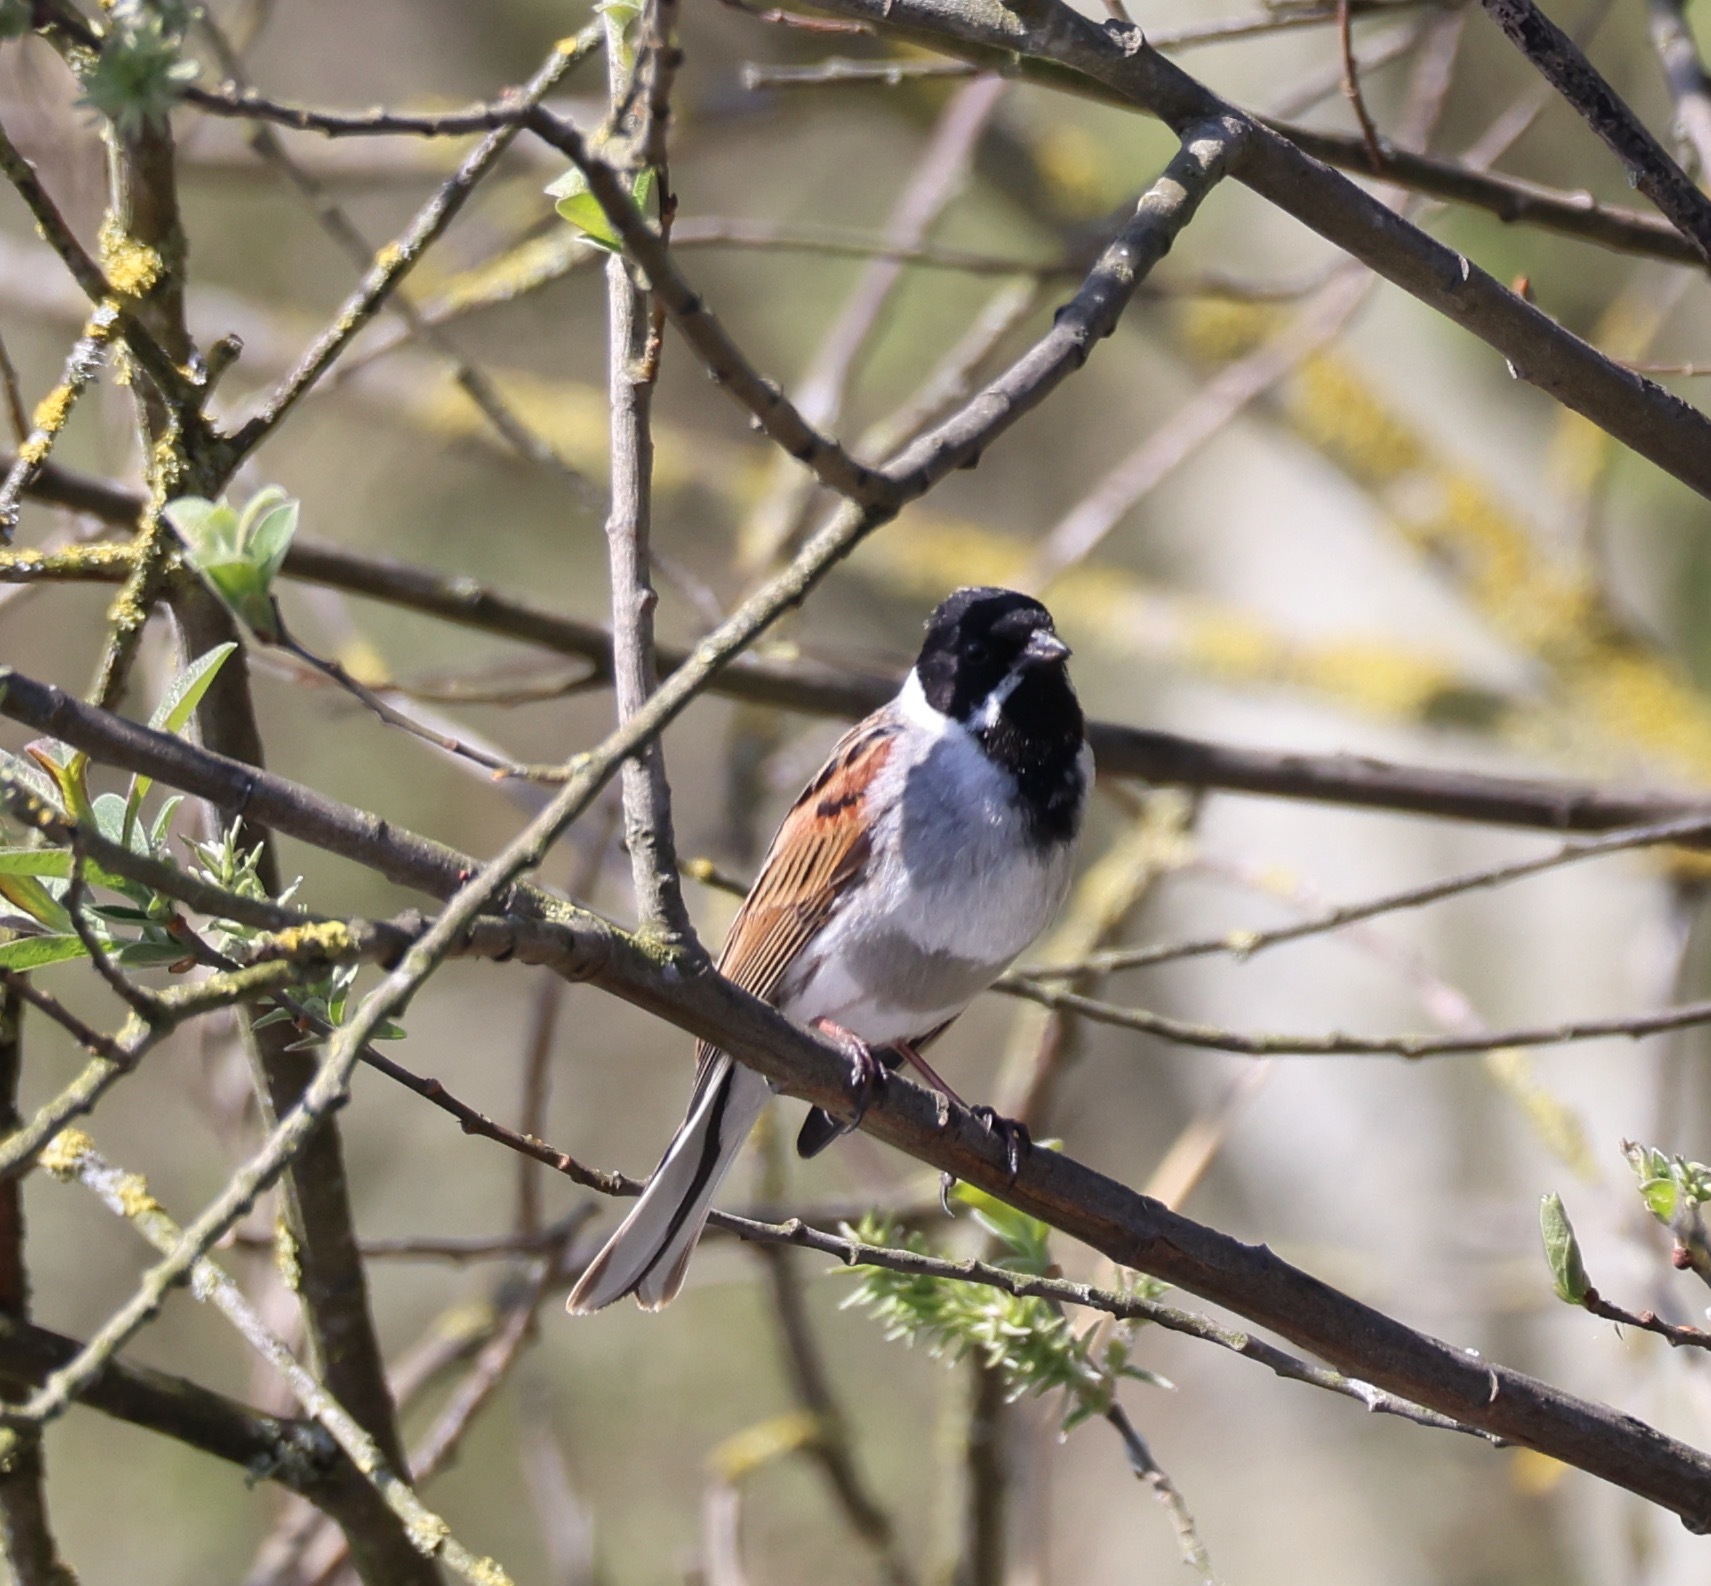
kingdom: Animalia
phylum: Chordata
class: Aves
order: Passeriformes
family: Emberizidae
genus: Emberiza
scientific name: Emberiza schoeniclus
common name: Reed bunting
